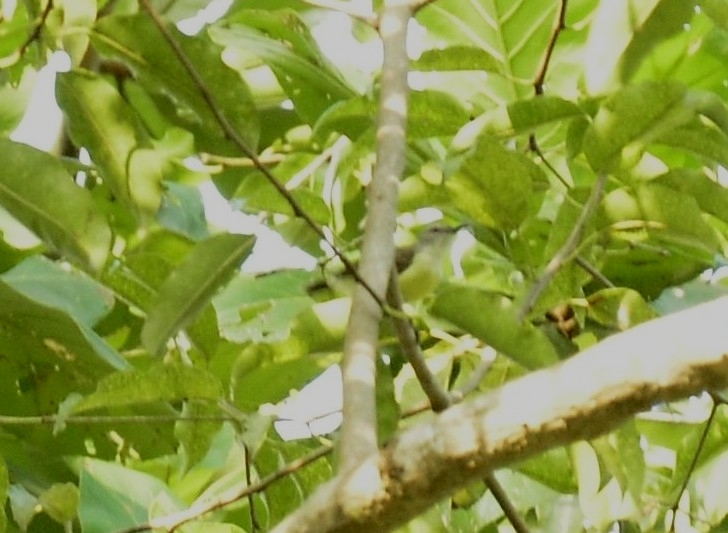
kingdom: Animalia
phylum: Chordata
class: Aves
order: Passeriformes
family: Nectariniidae
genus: Leptocoma
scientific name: Leptocoma zeylonica
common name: Purple-rumped sunbird
